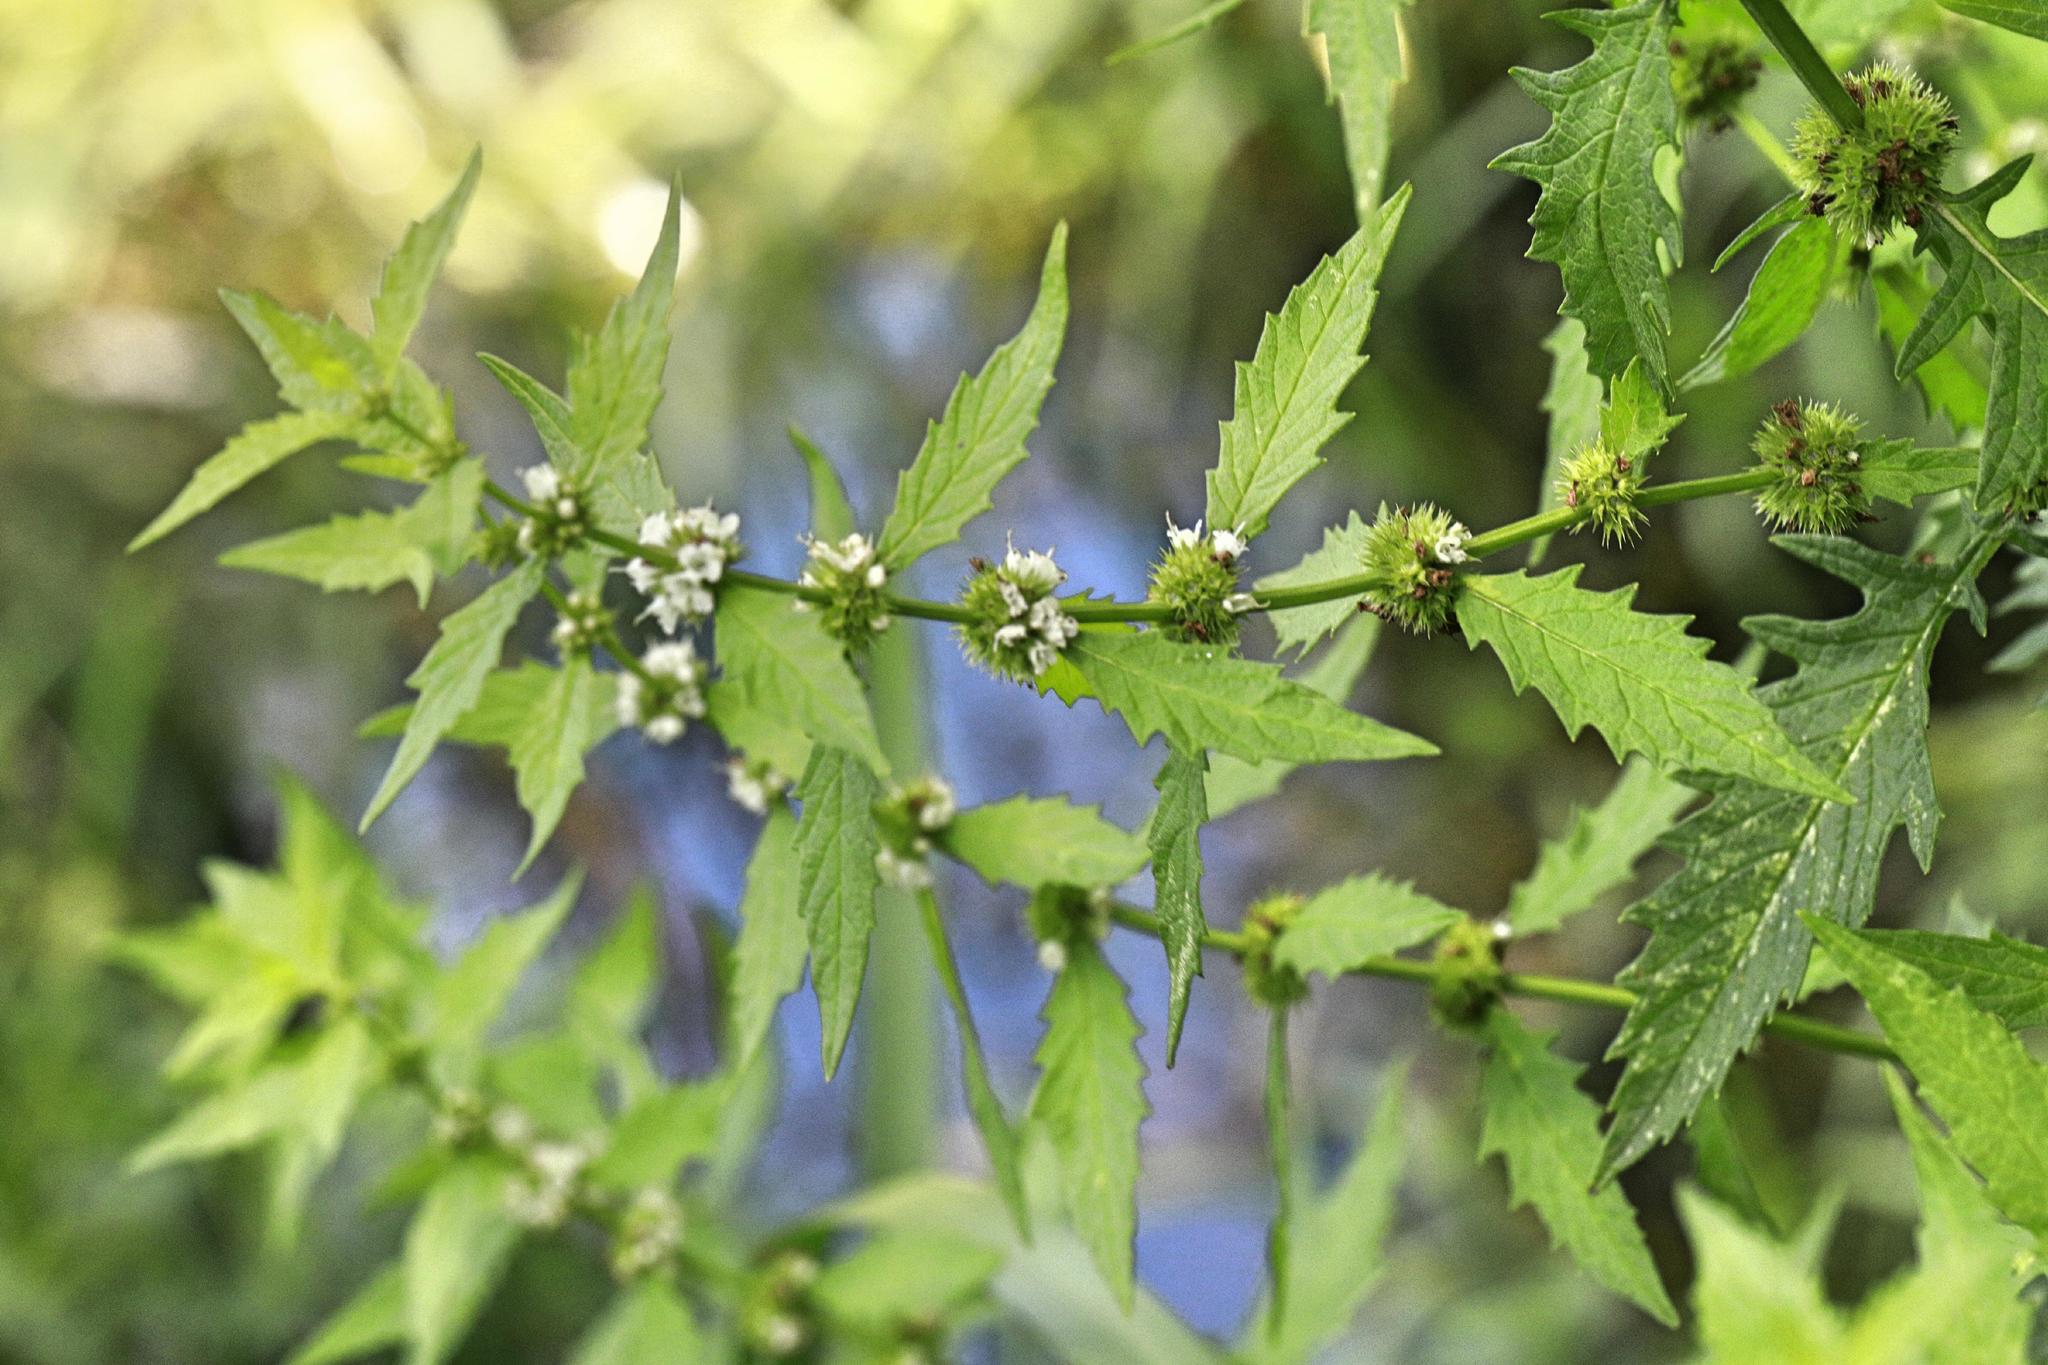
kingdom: Plantae
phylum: Tracheophyta
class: Magnoliopsida
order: Lamiales
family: Lamiaceae
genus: Lycopus
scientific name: Lycopus europaeus
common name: European bugleweed
